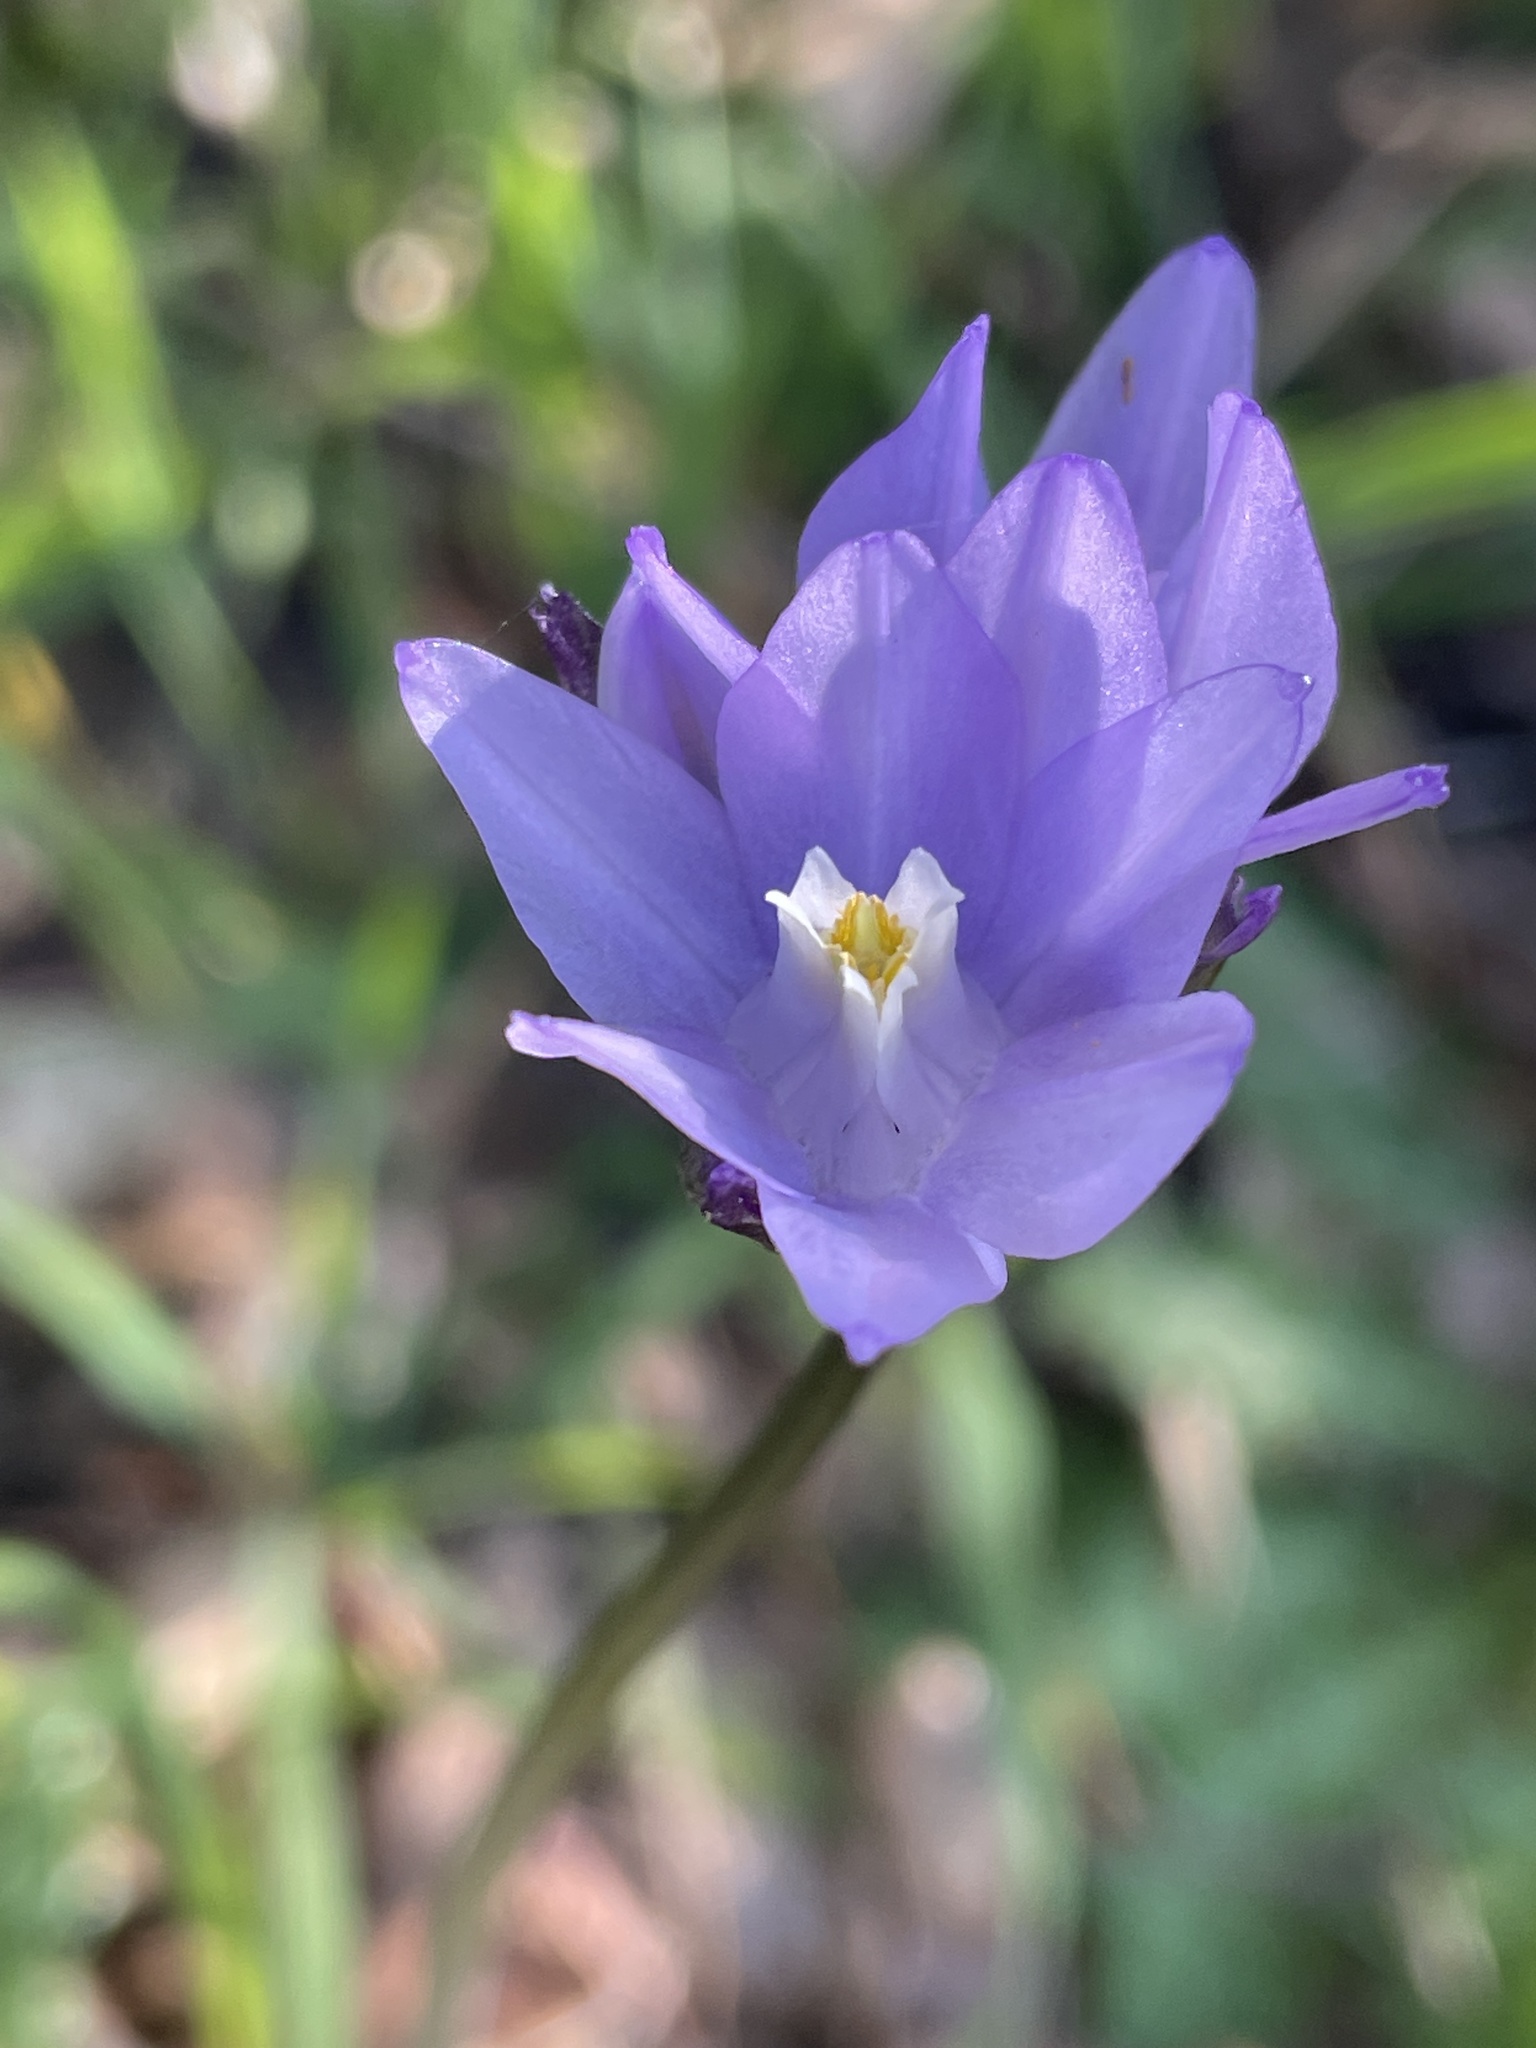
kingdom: Plantae
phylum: Tracheophyta
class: Liliopsida
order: Asparagales
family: Asparagaceae
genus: Dipterostemon
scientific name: Dipterostemon capitatus
